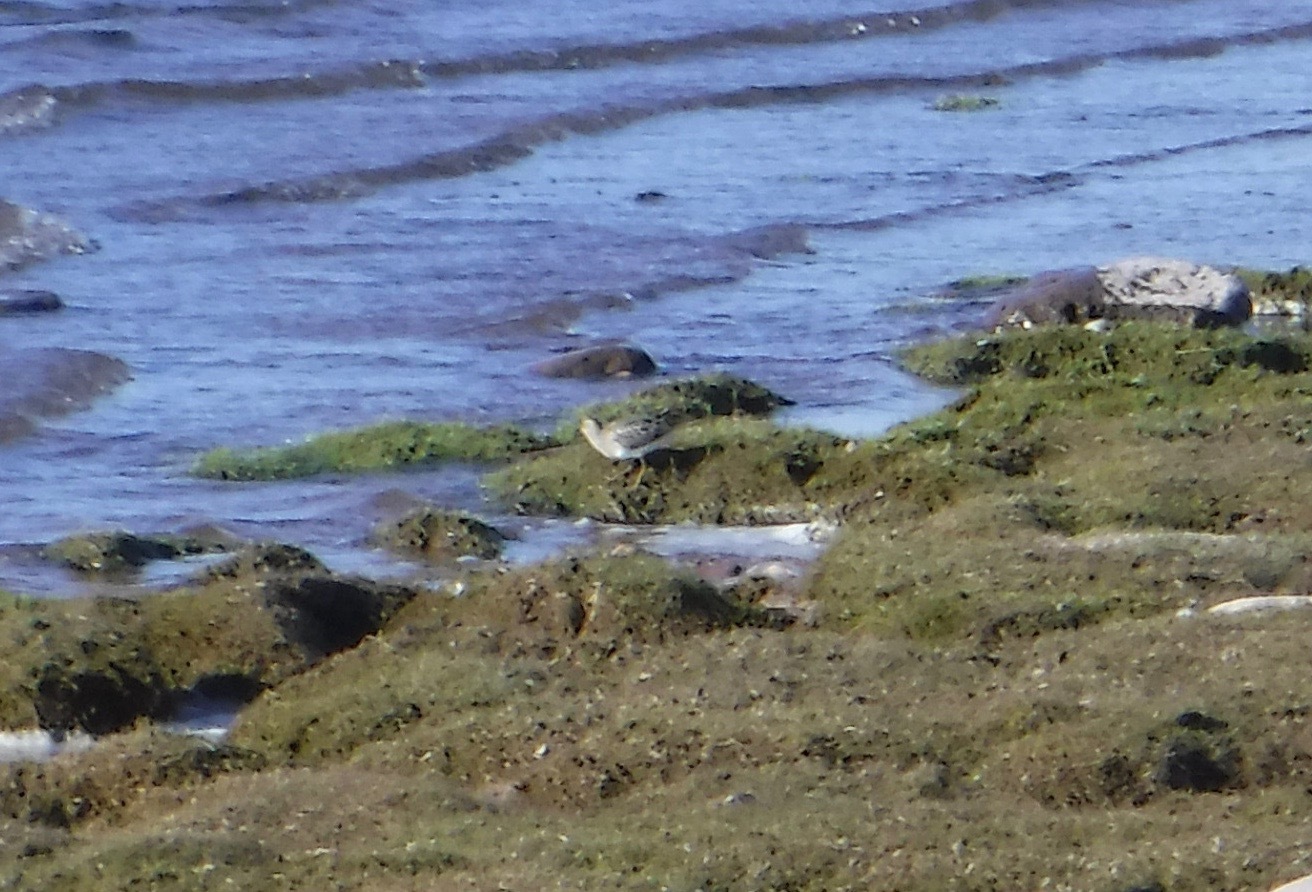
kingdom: Animalia
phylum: Chordata
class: Aves
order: Charadriiformes
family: Scolopacidae
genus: Calidris
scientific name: Calidris melanotos
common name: Pectoral sandpiper
